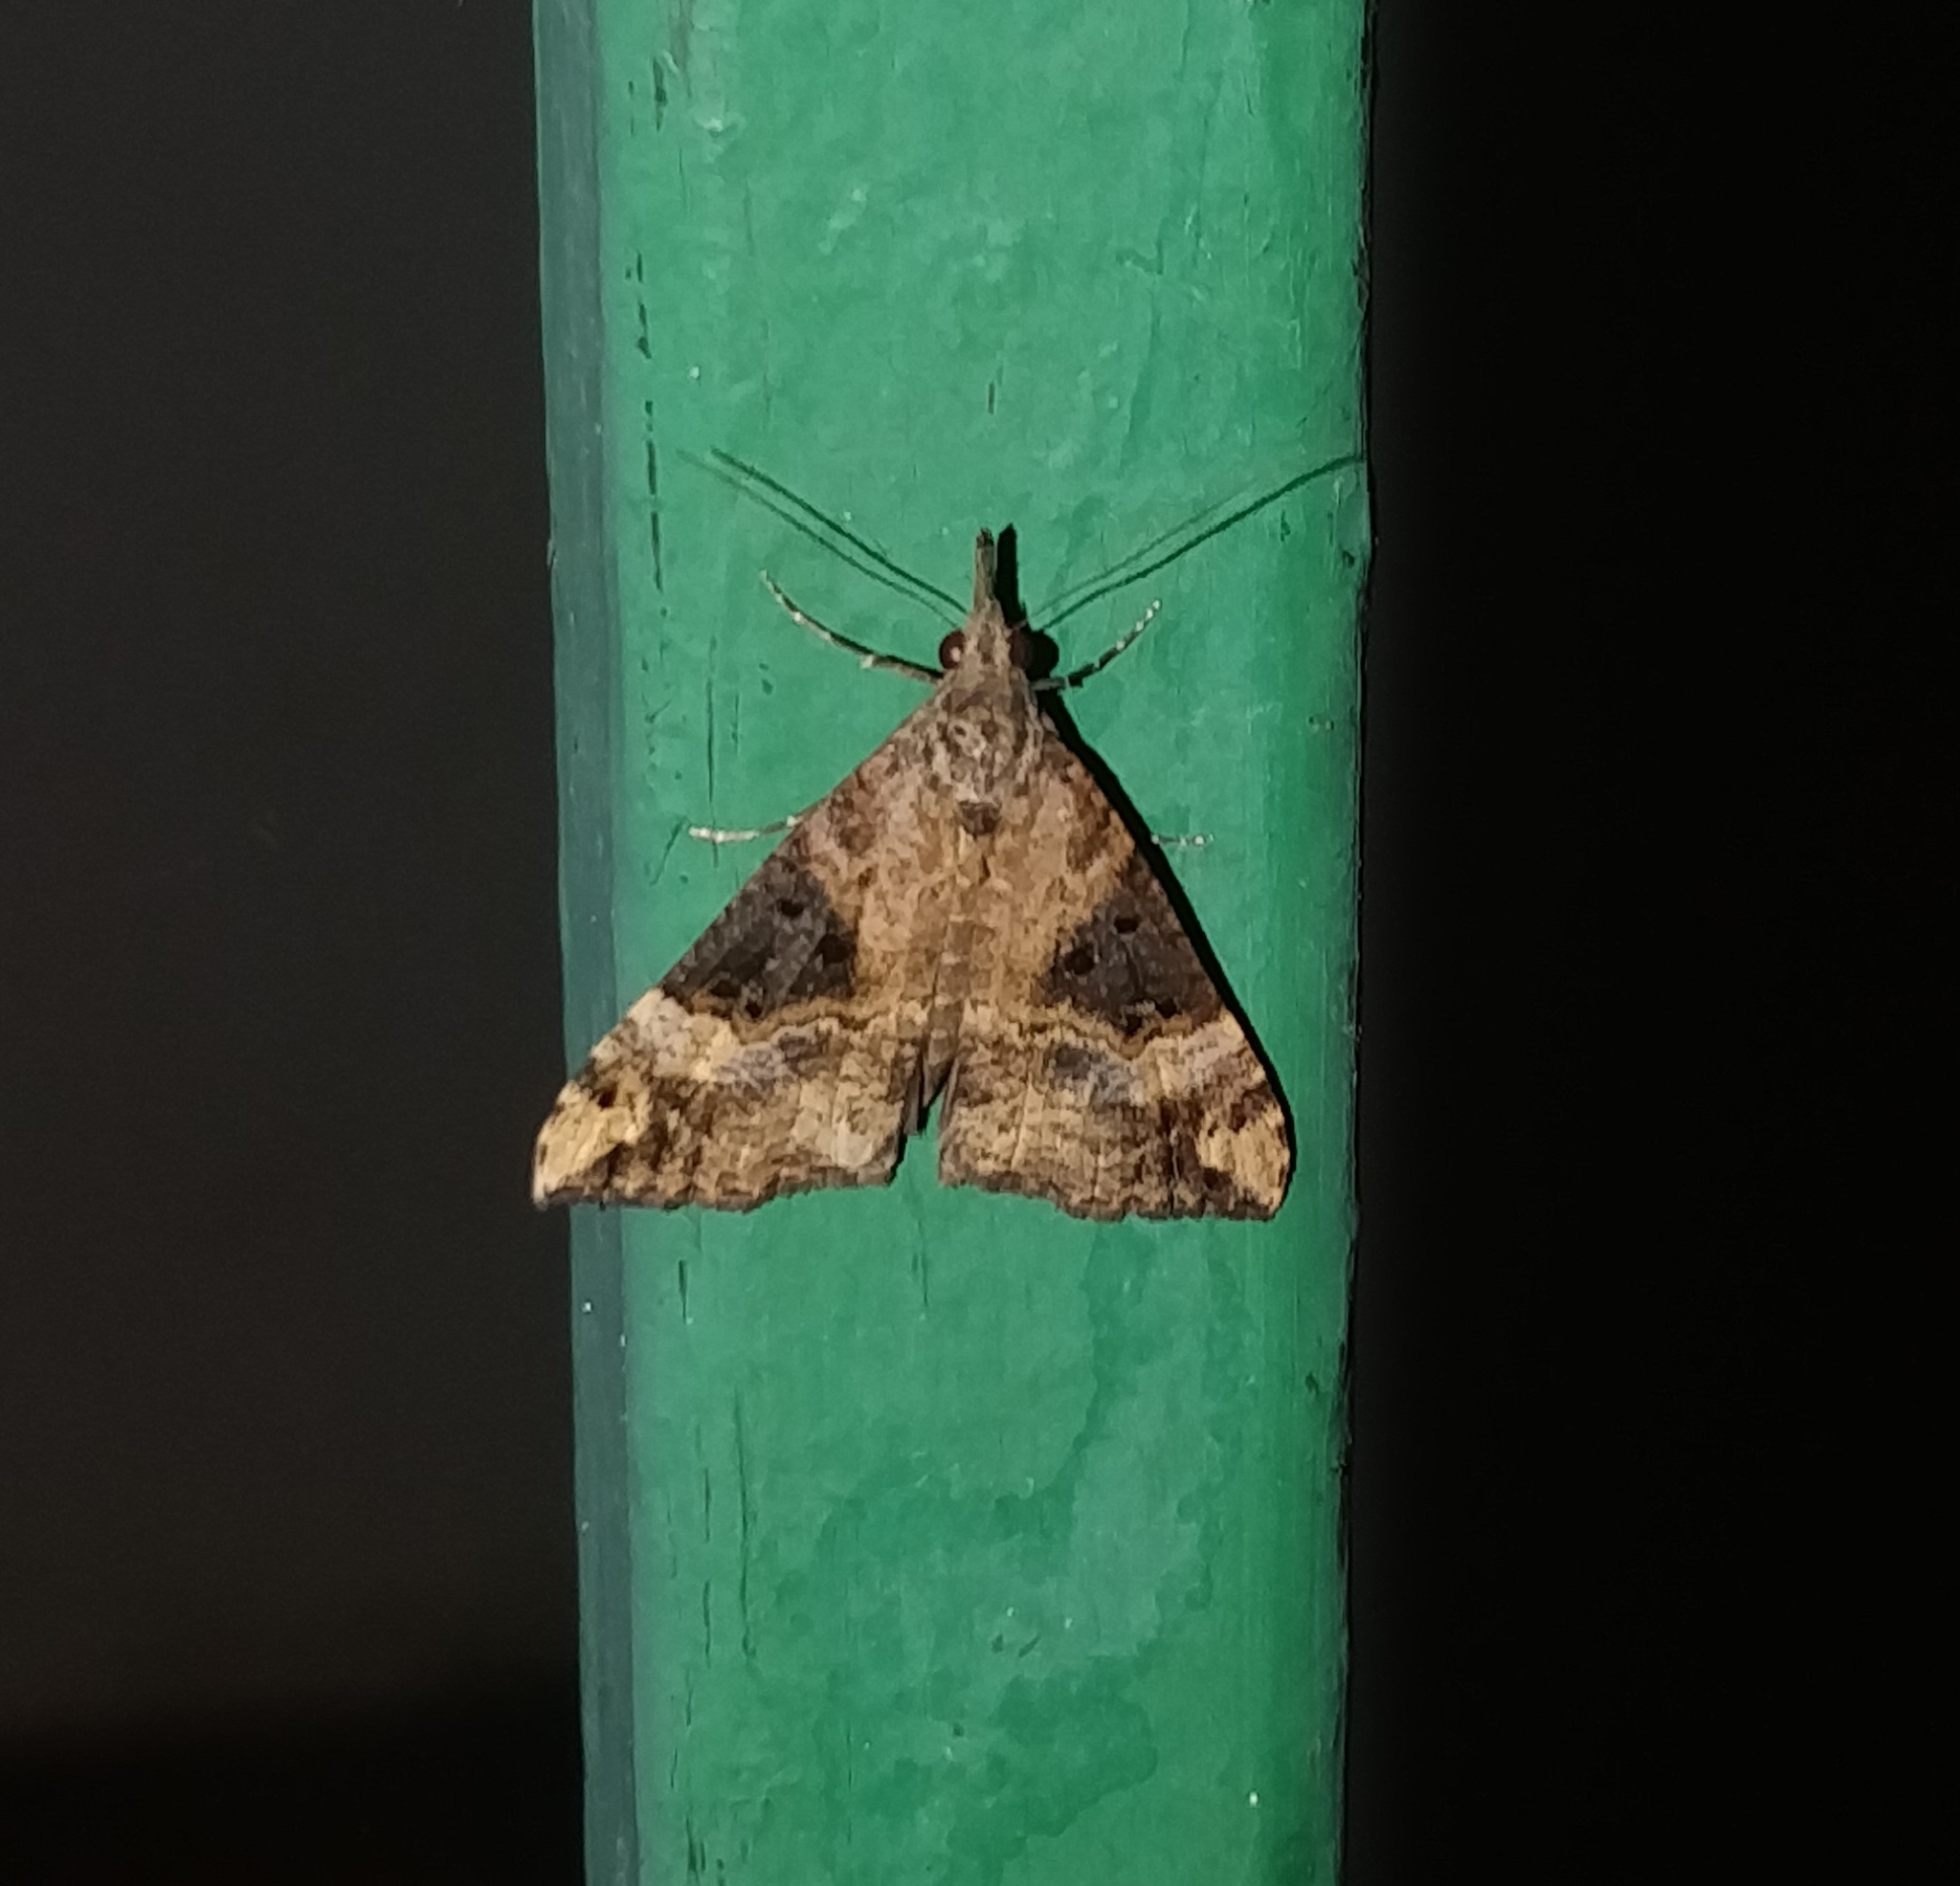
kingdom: Animalia
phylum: Arthropoda
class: Insecta
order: Lepidoptera
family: Erebidae
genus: Hypena
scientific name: Hypena obsitalis
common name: Bloxworth snout
